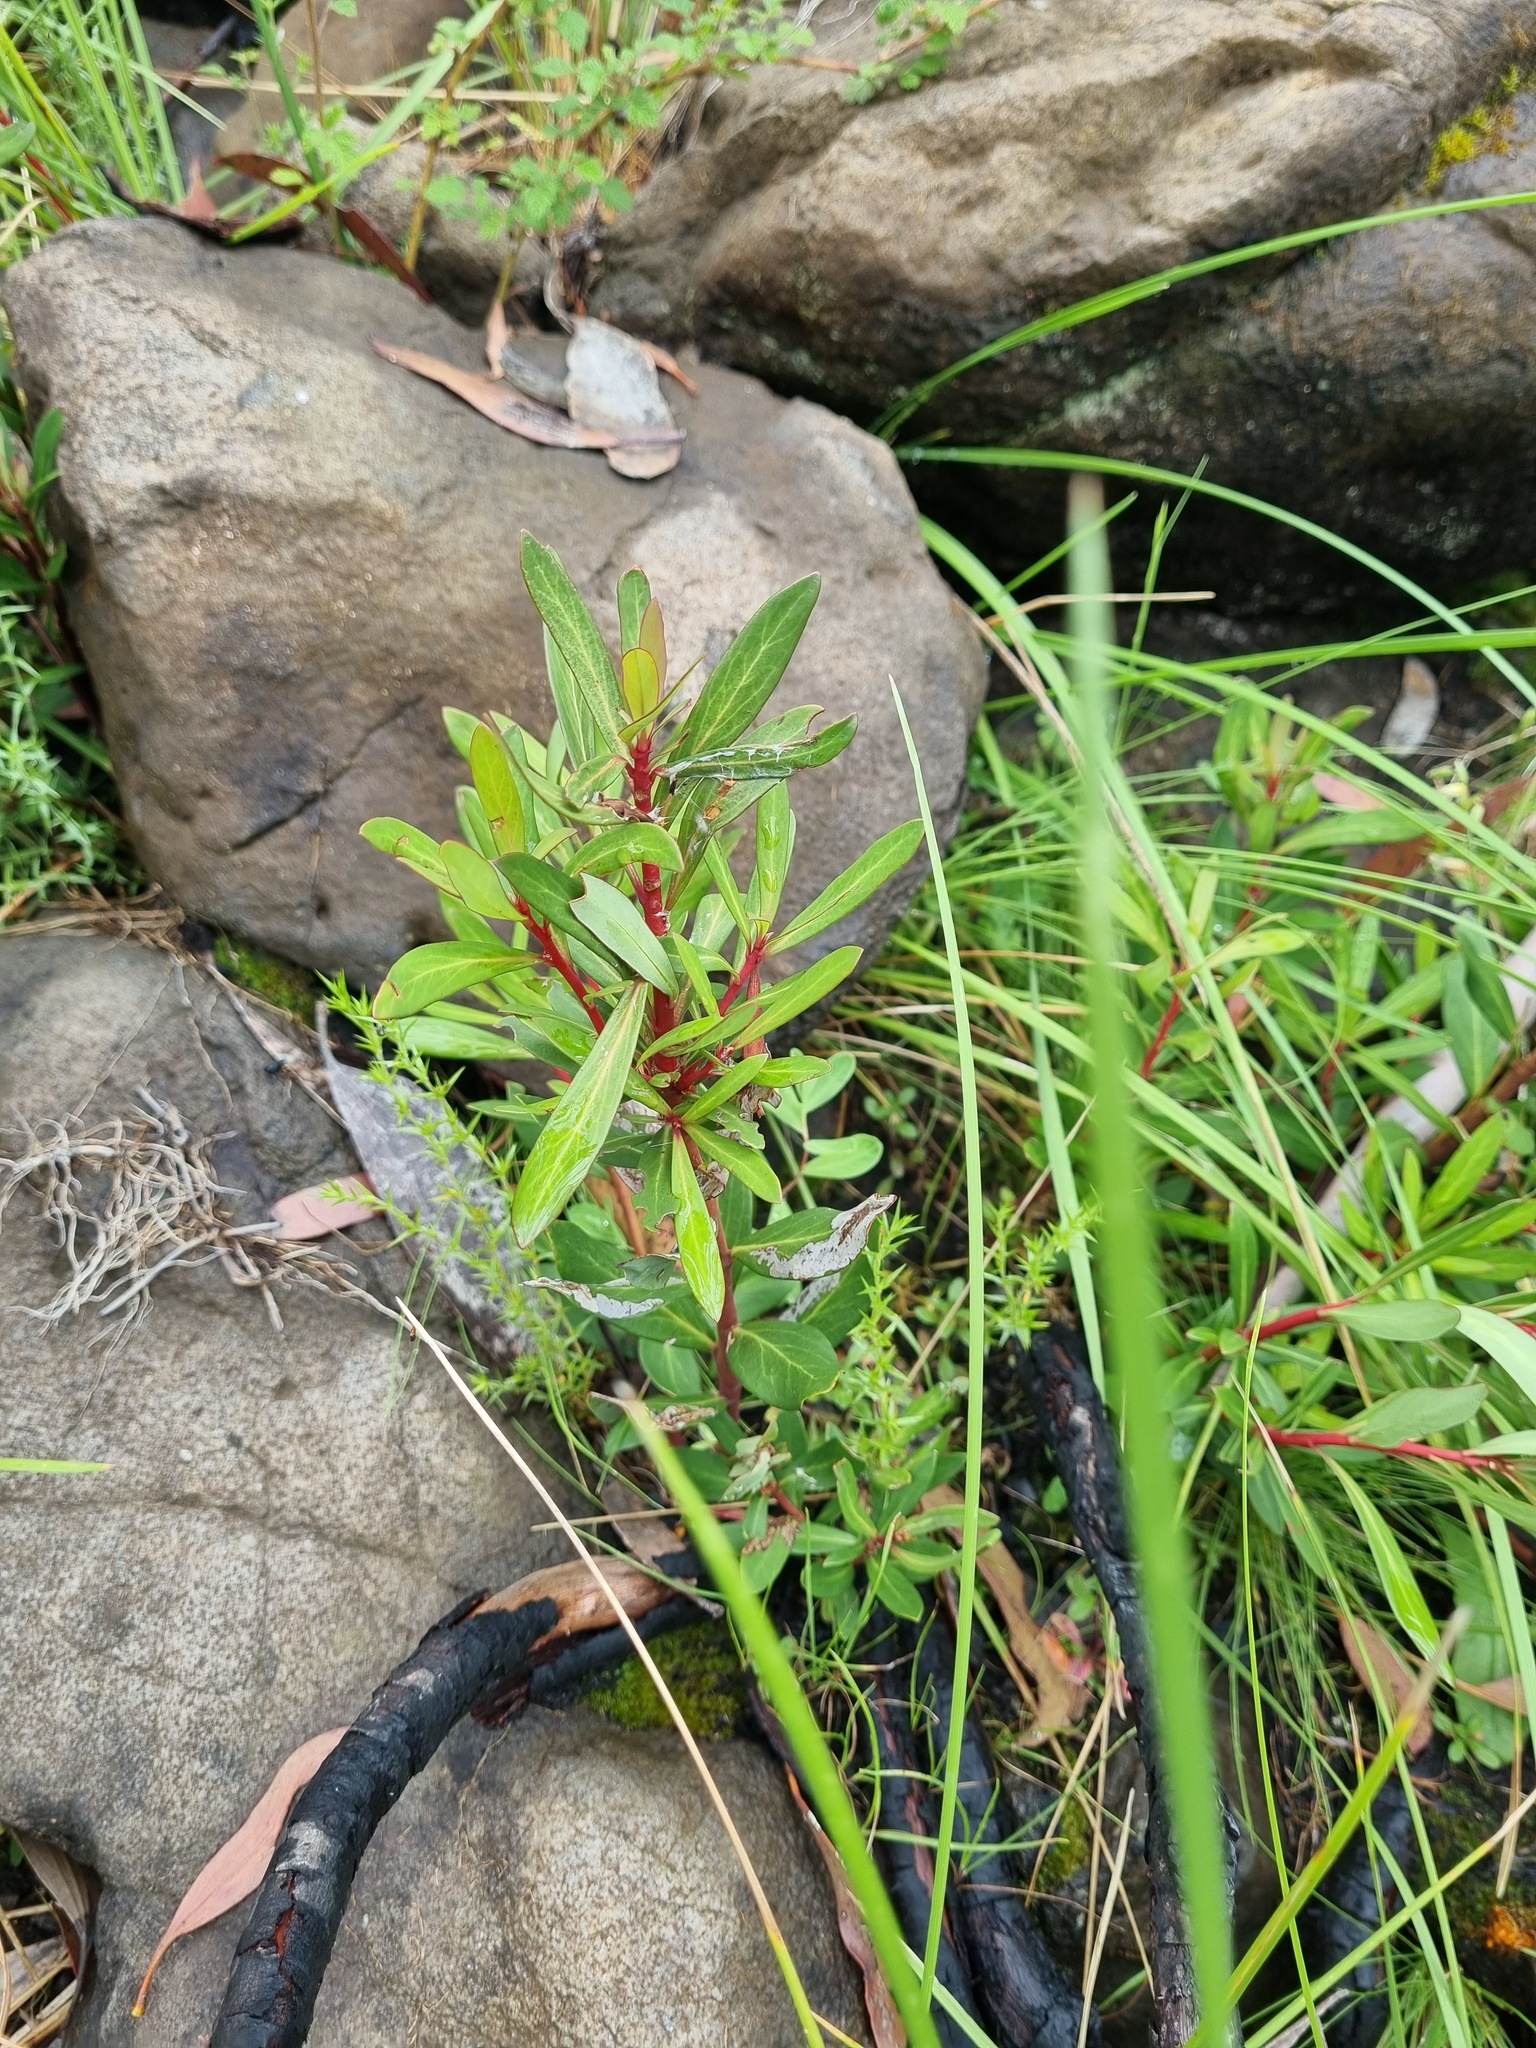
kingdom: Plantae
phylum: Tracheophyta
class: Magnoliopsida
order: Canellales
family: Winteraceae
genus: Drimys
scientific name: Drimys xerophila
